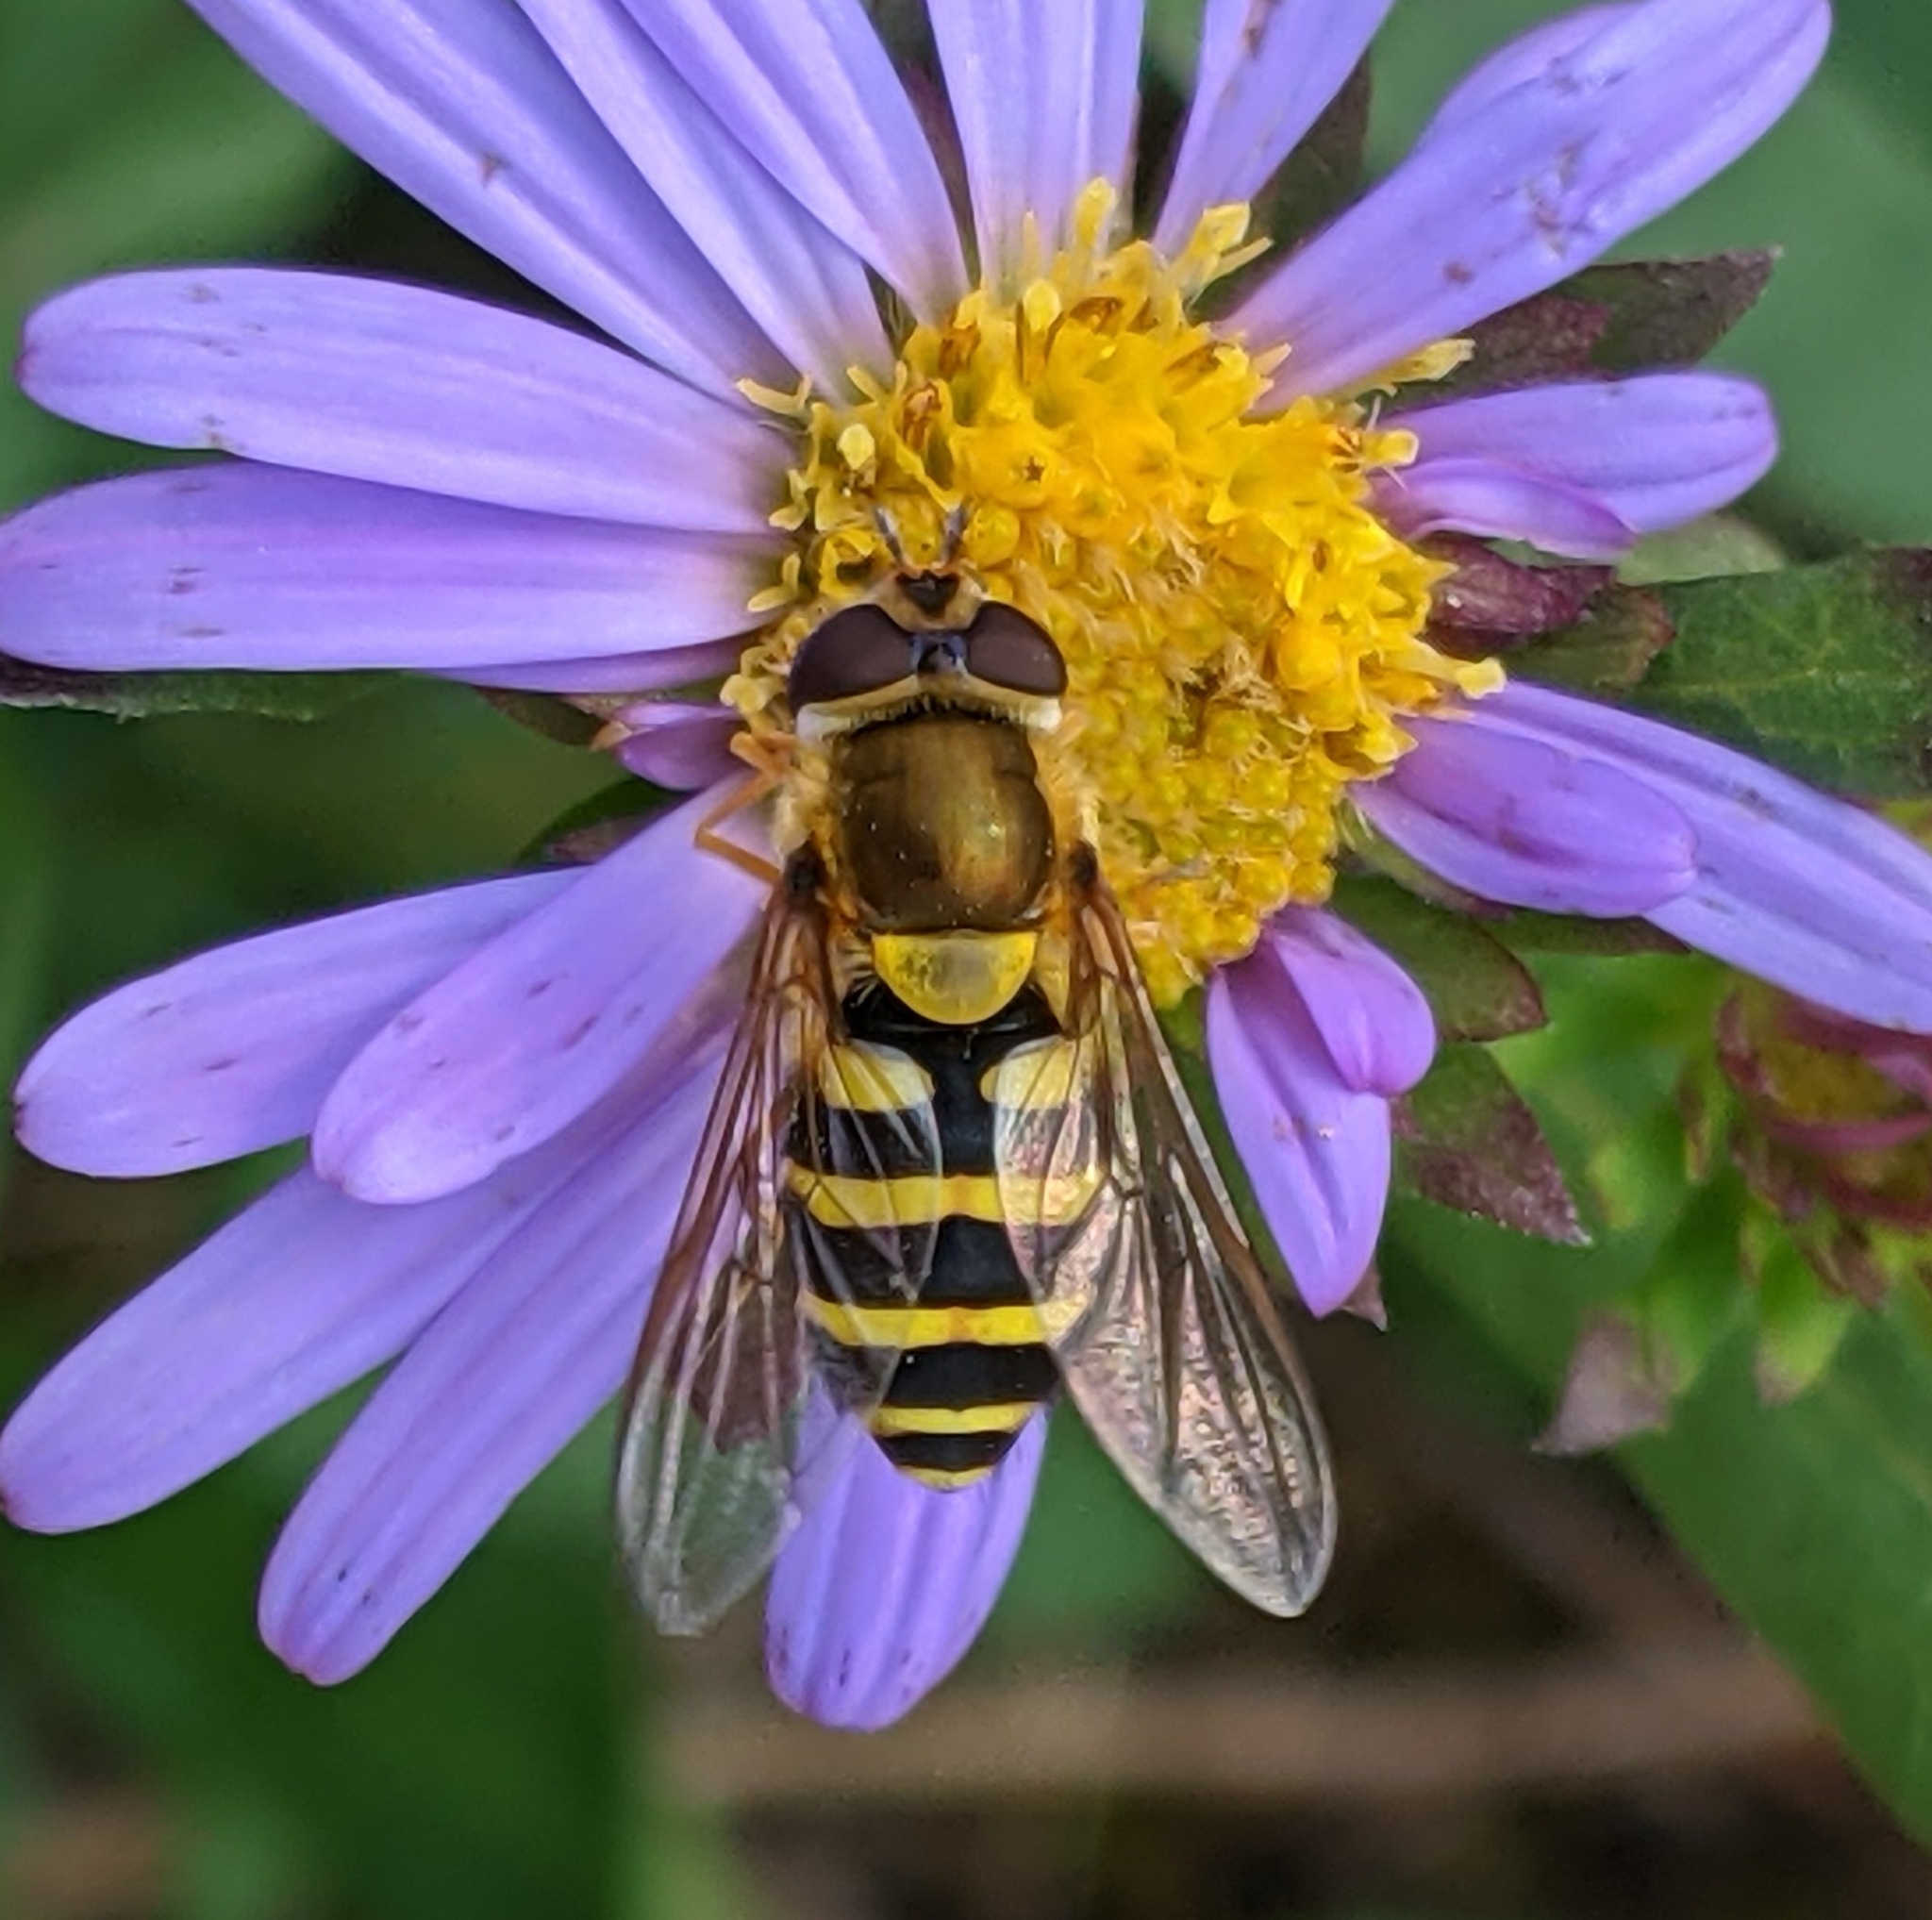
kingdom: Animalia
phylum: Arthropoda
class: Insecta
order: Diptera
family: Syrphidae
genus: Syrphus
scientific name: Syrphus
